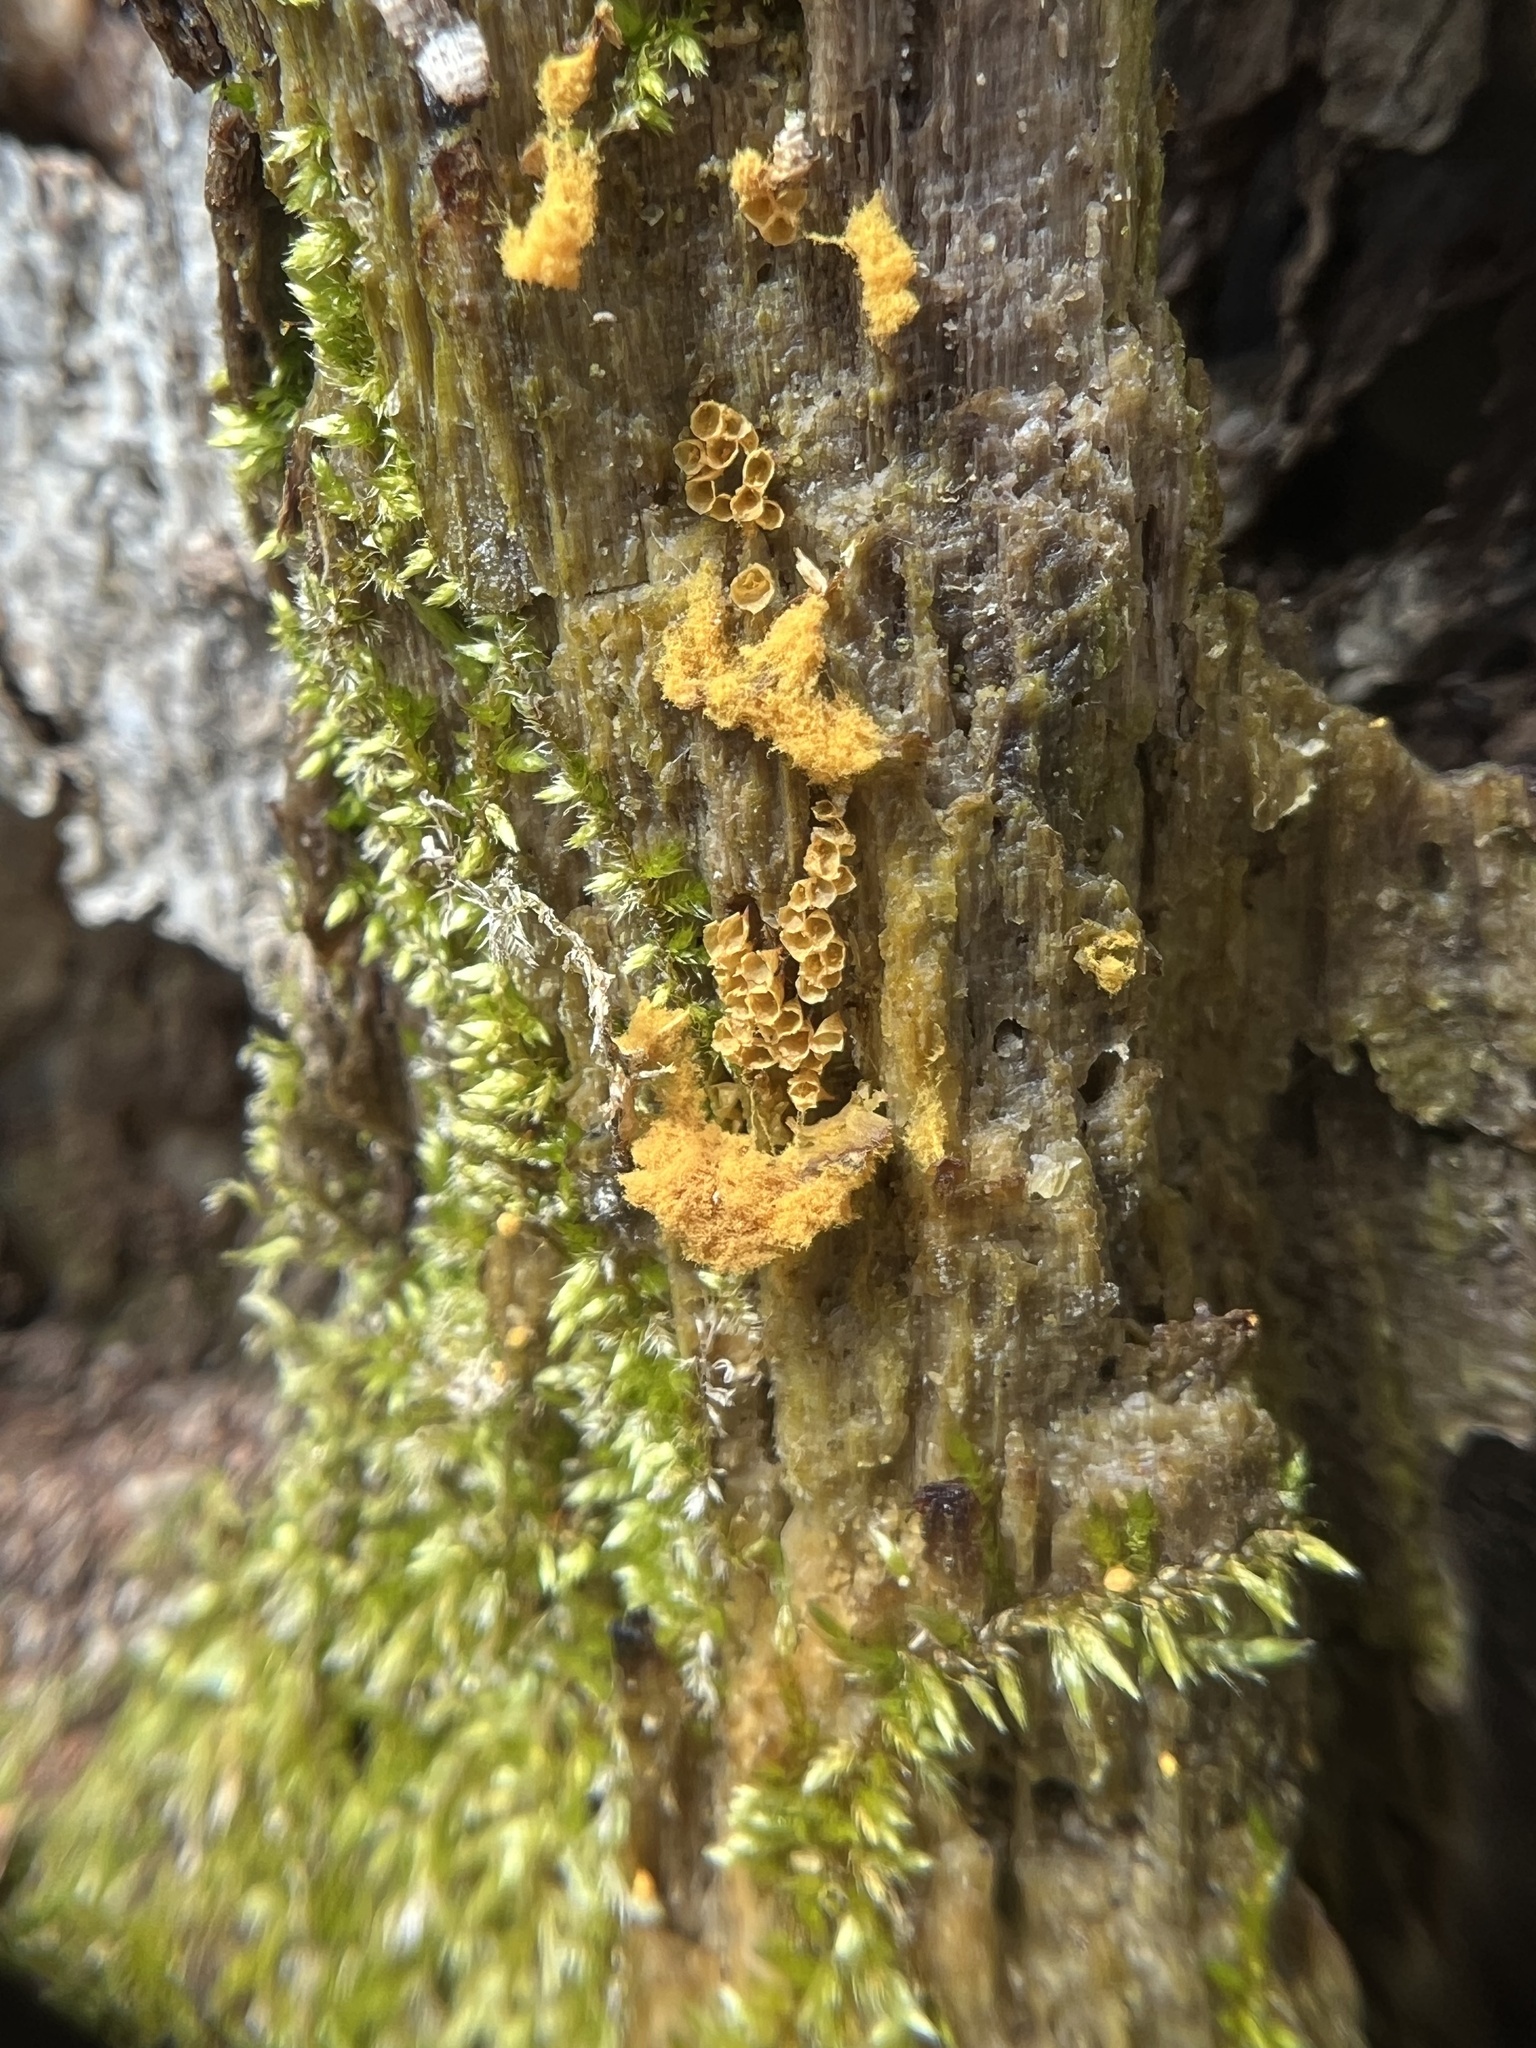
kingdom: Protozoa
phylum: Mycetozoa
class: Myxomycetes
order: Trichiales
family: Arcyriaceae
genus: Hemitrichia
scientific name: Hemitrichia calyculata
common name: Push pin slime mold
